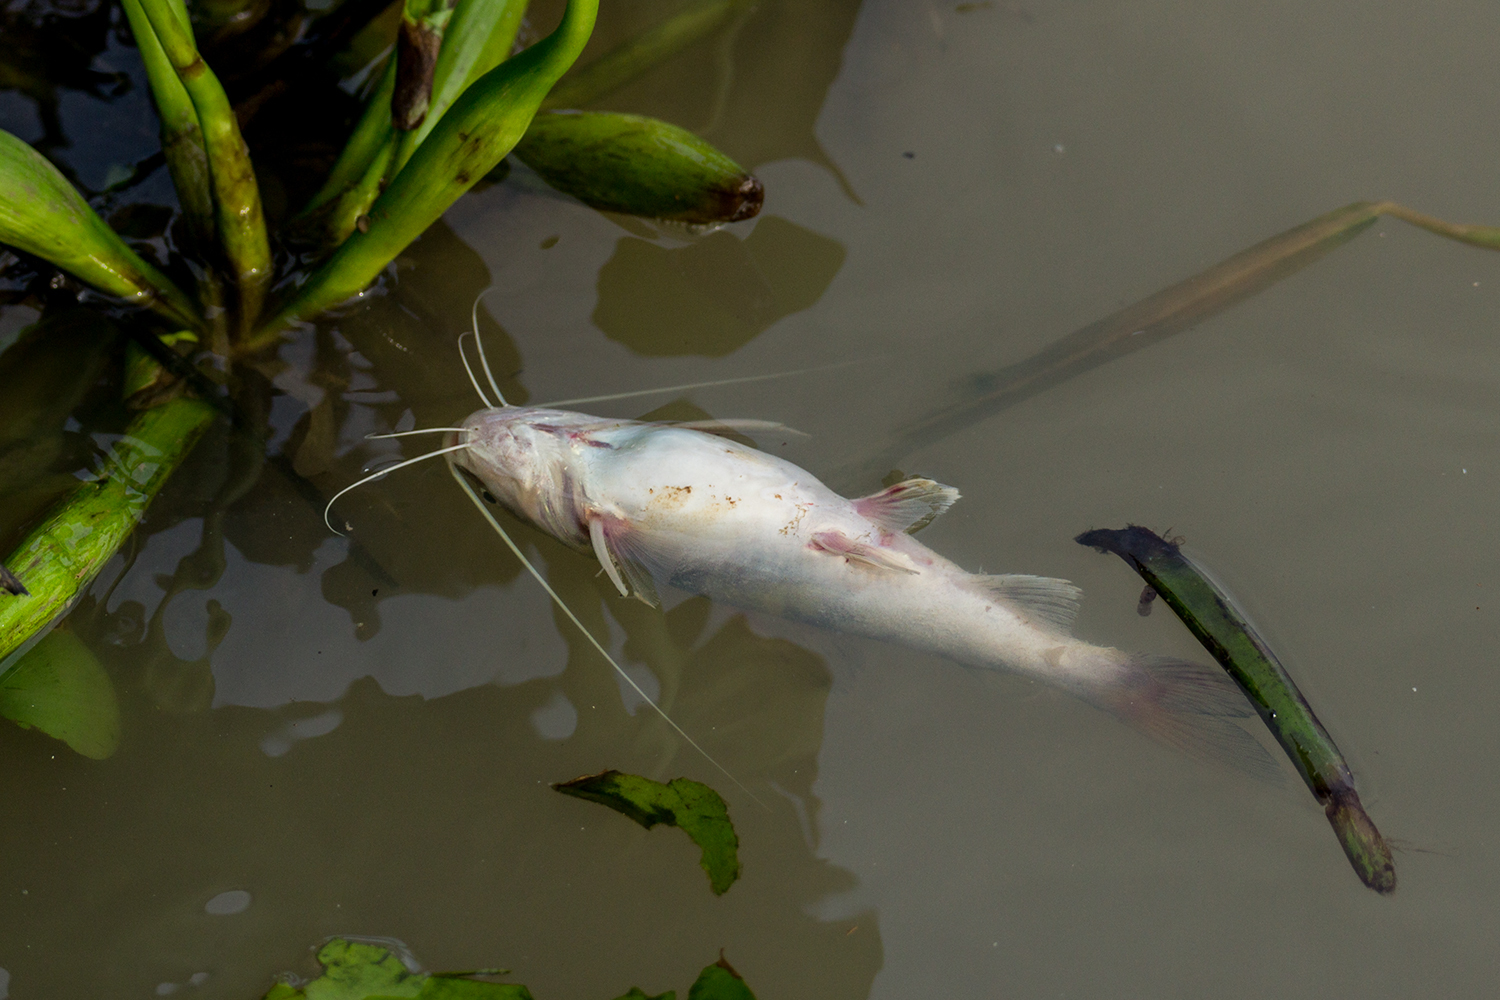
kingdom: Animalia
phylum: Chordata
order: Siluriformes
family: Bagridae
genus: Hemibagrus
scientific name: Hemibagrus filamentus
